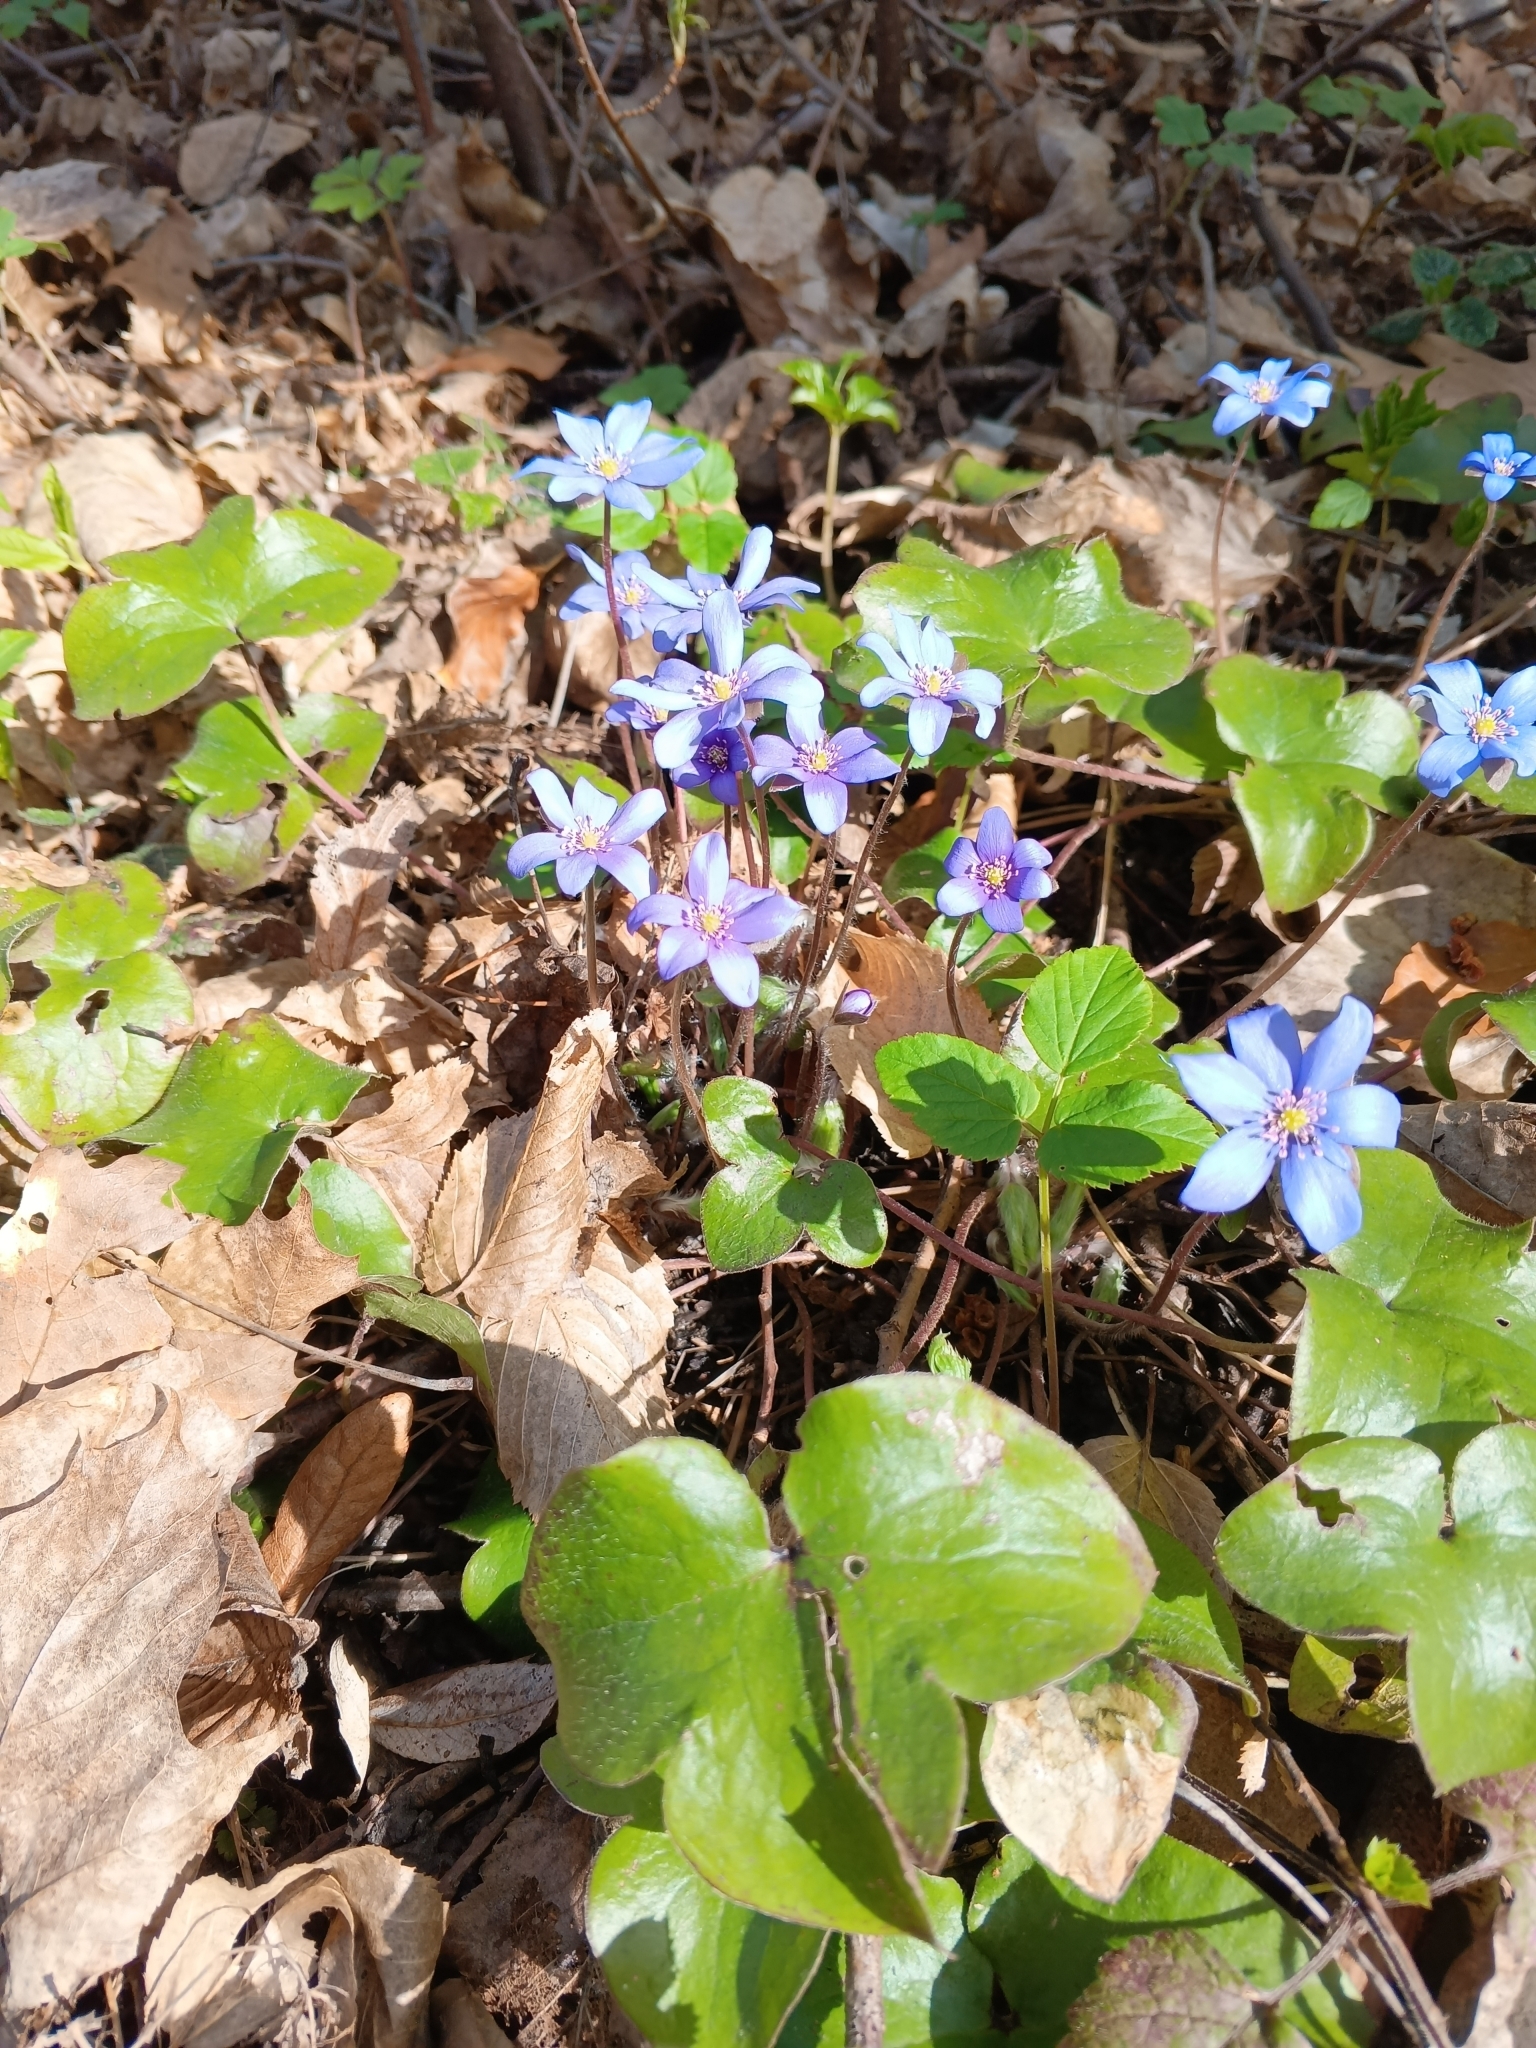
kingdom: Plantae
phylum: Tracheophyta
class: Magnoliopsida
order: Ranunculales
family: Ranunculaceae
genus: Hepatica
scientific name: Hepatica nobilis
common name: Liverleaf
